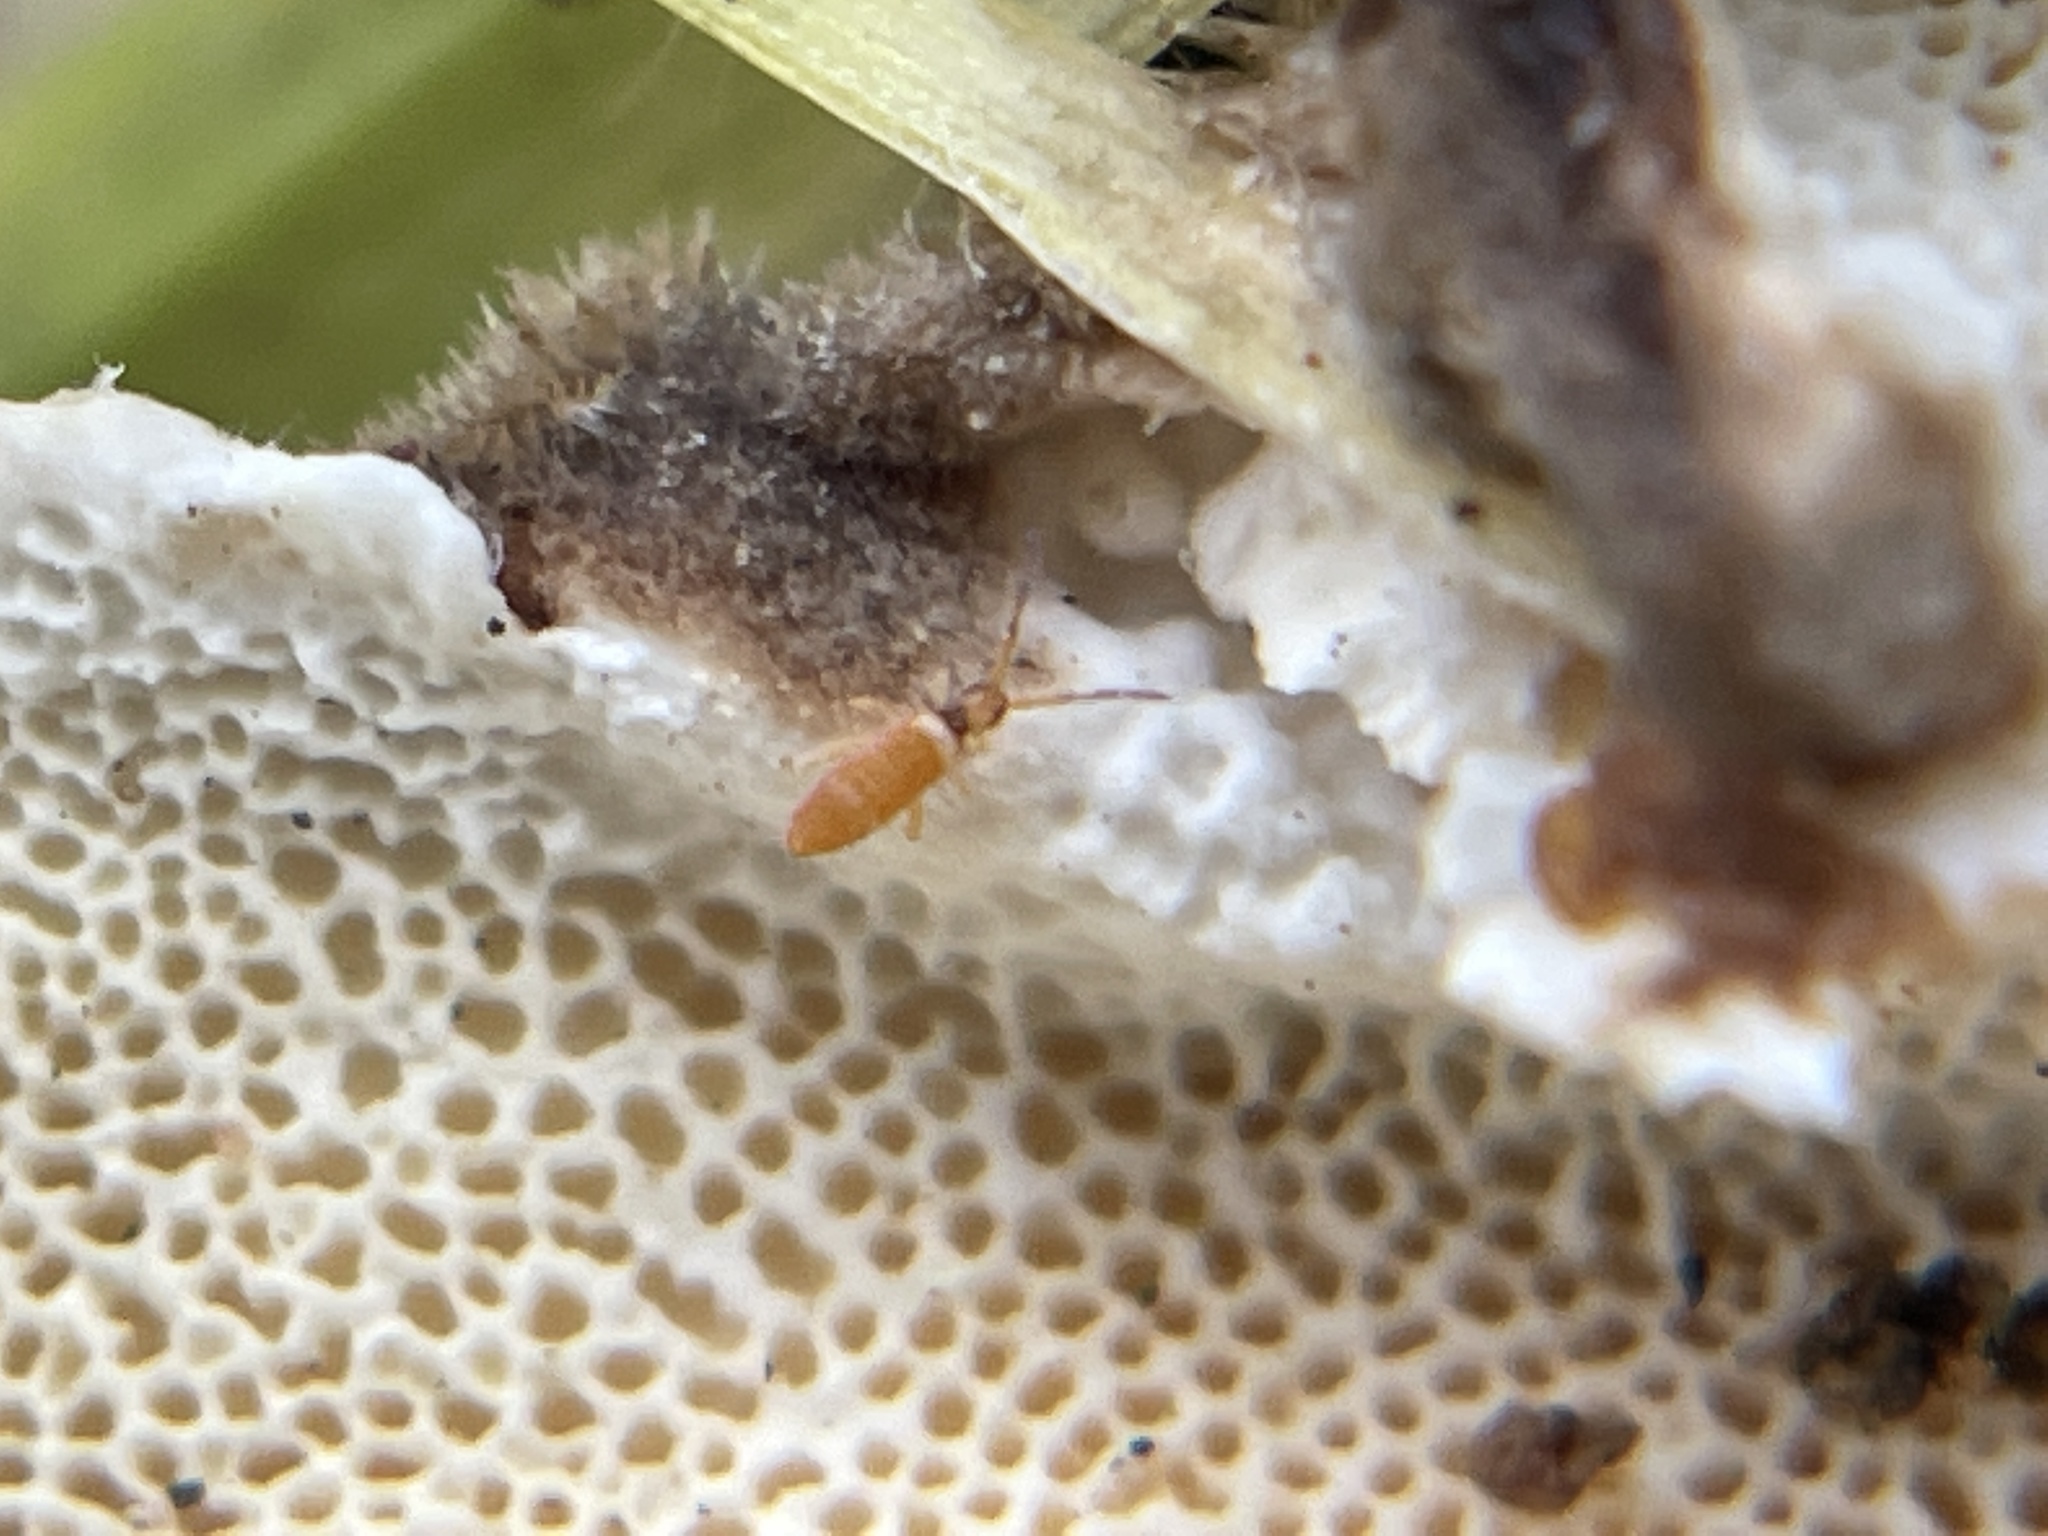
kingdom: Animalia
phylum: Arthropoda
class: Collembola
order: Entomobryomorpha
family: Entomobryidae
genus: Entomobrya
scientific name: Entomobrya atrocincta
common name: Springtail
